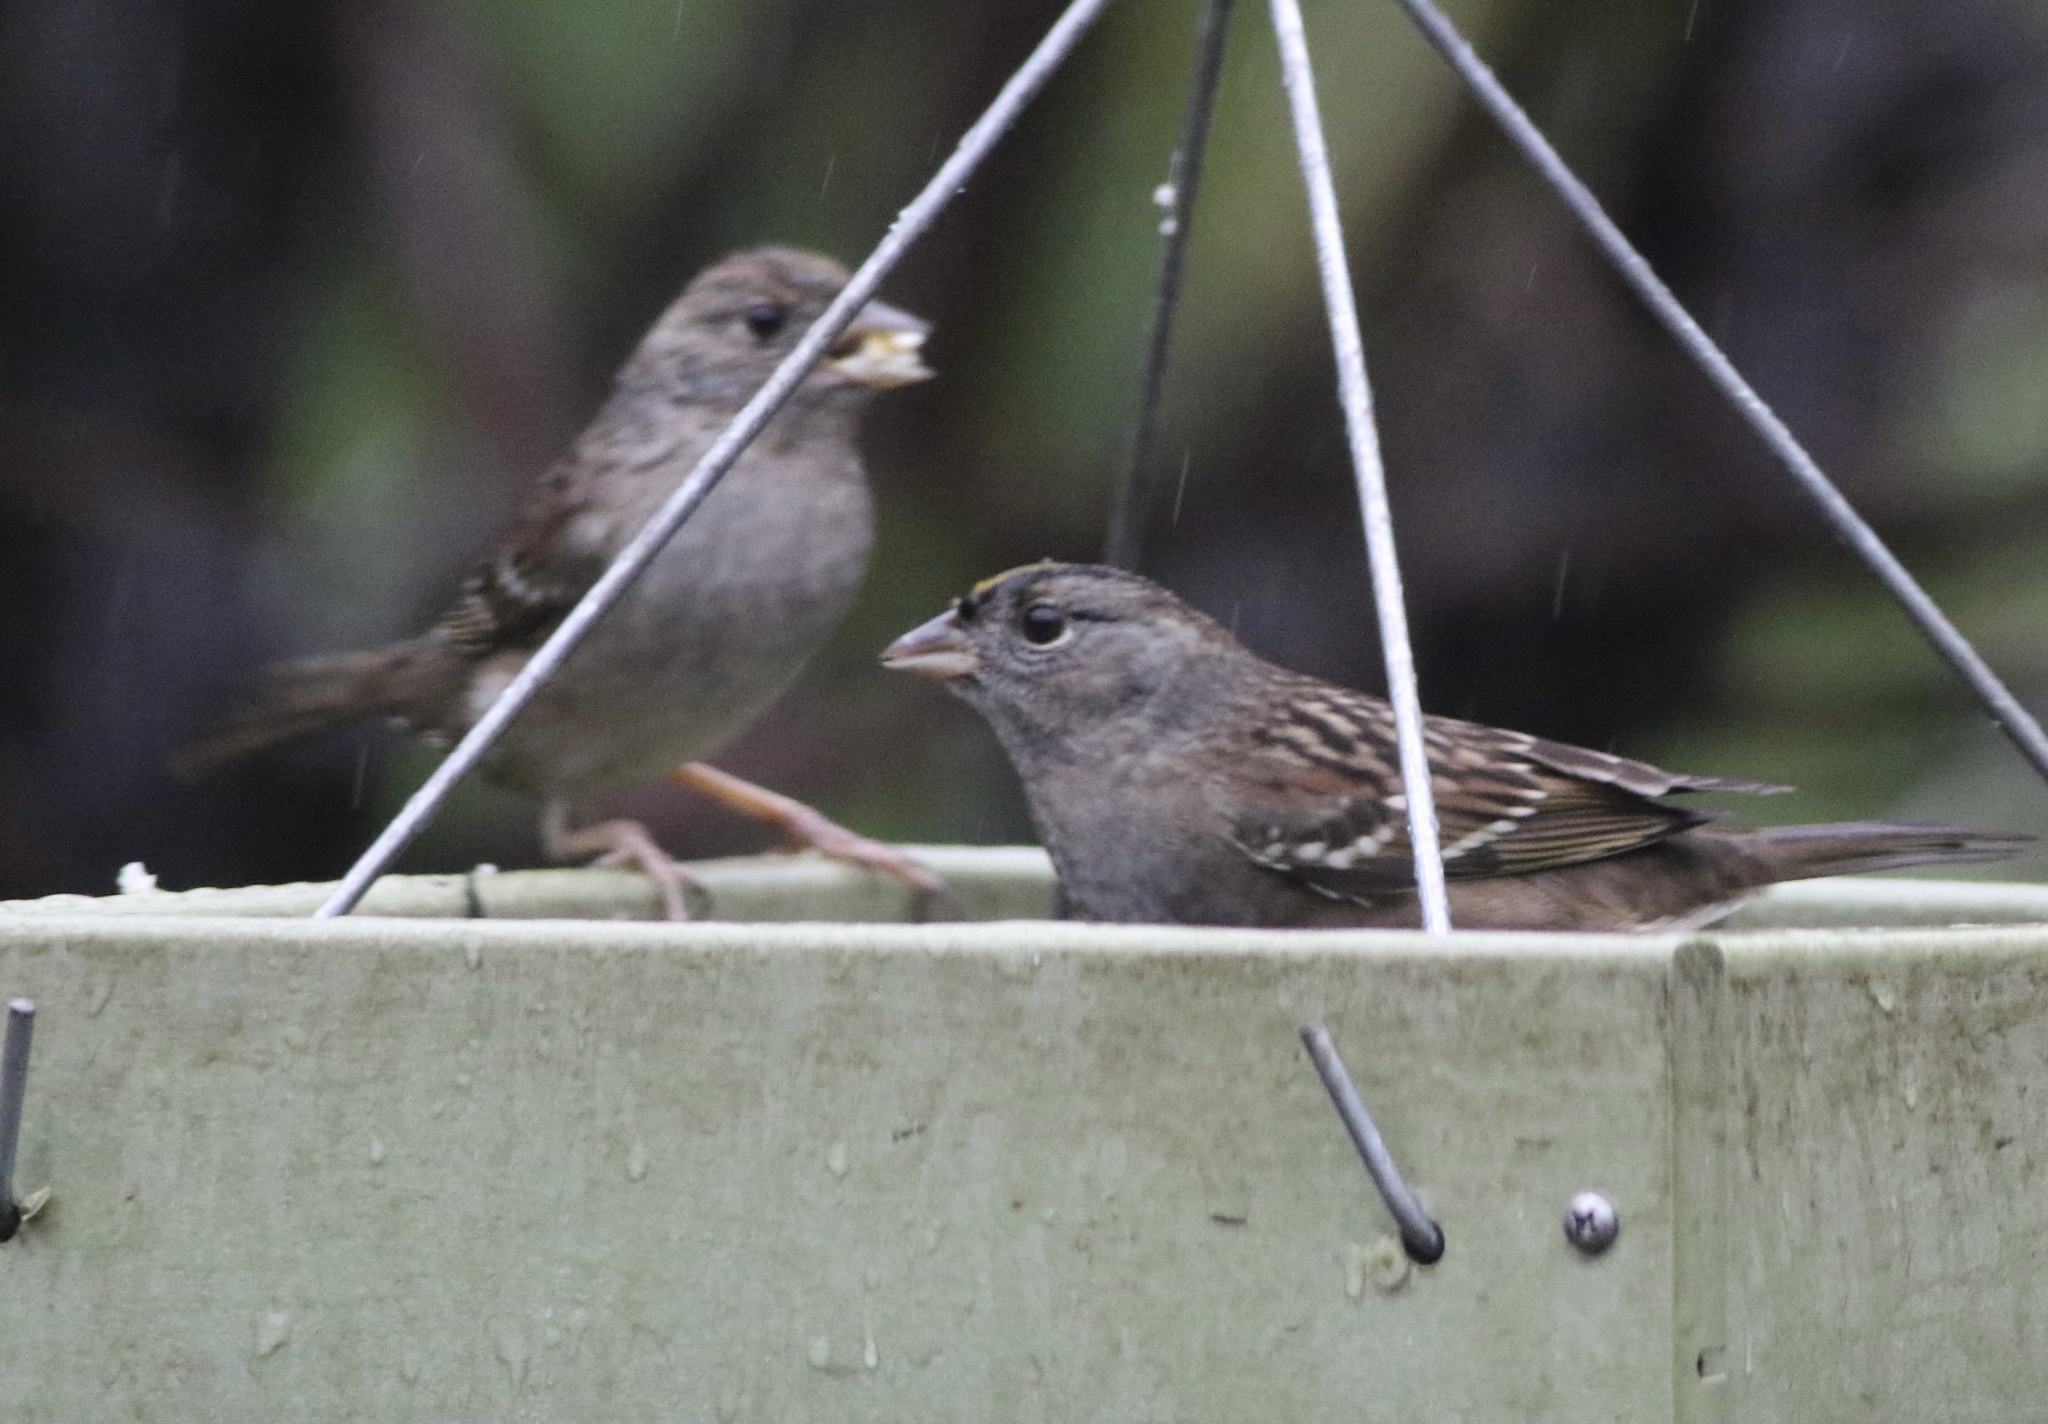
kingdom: Animalia
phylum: Chordata
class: Aves
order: Passeriformes
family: Passerellidae
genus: Zonotrichia
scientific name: Zonotrichia atricapilla
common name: Golden-crowned sparrow
